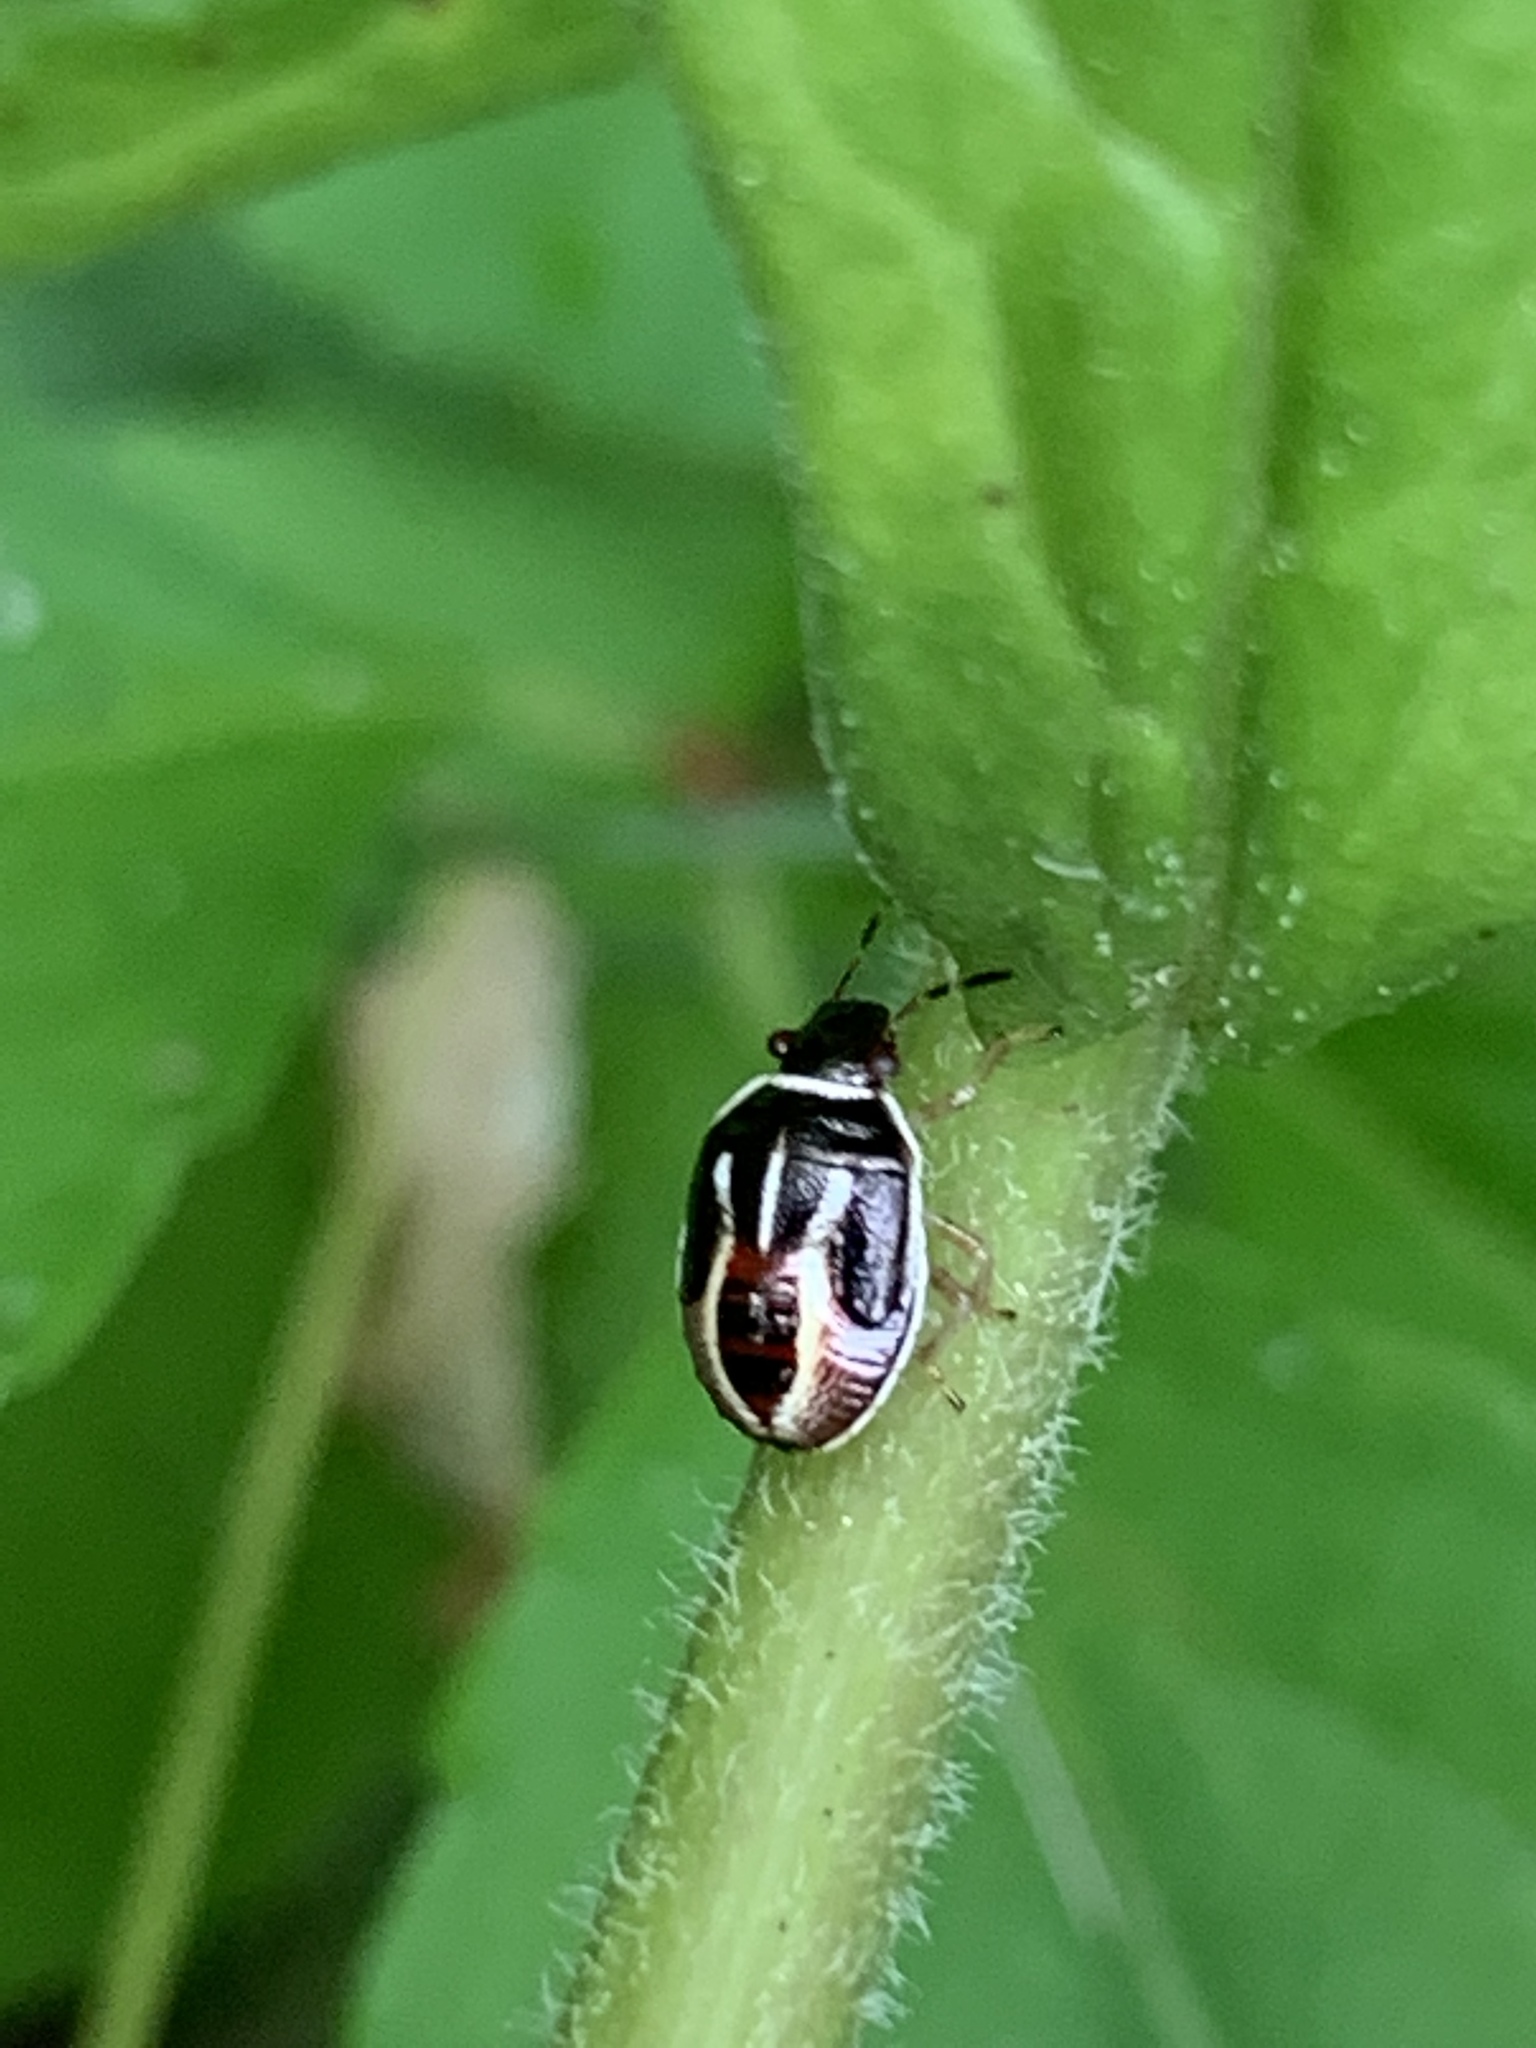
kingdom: Animalia
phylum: Arthropoda
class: Insecta
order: Hemiptera
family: Pentatomidae
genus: Mormidea
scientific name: Mormidea lugens
